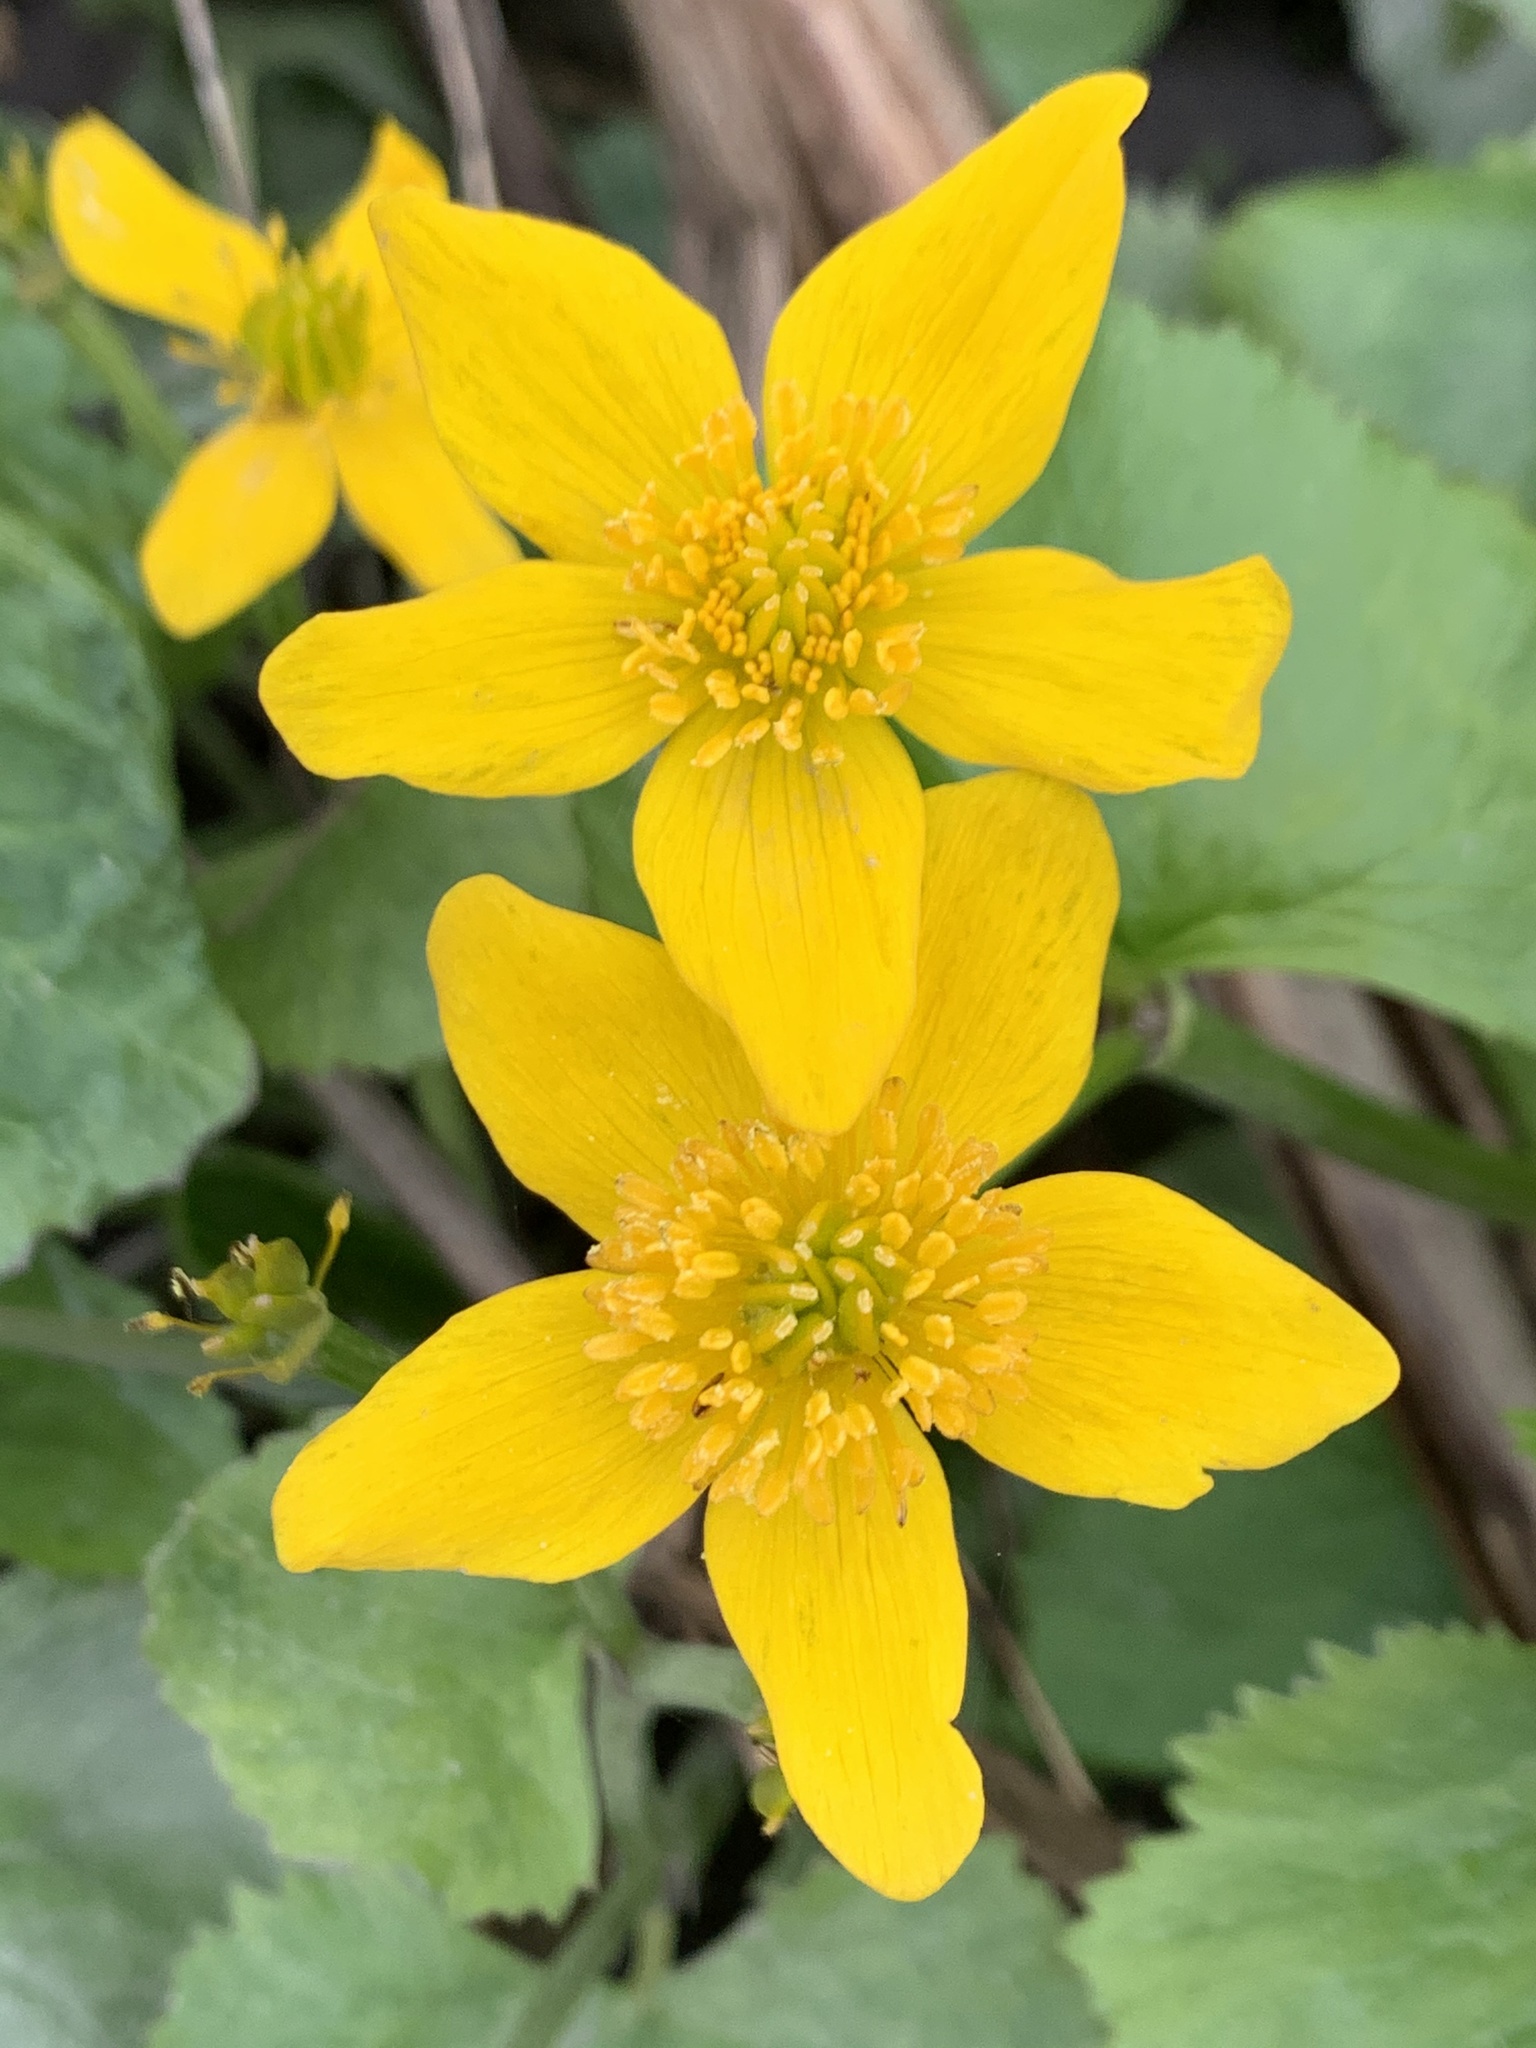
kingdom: Plantae
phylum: Tracheophyta
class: Magnoliopsida
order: Ranunculales
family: Ranunculaceae
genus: Caltha
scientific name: Caltha palustris
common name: Marsh marigold
